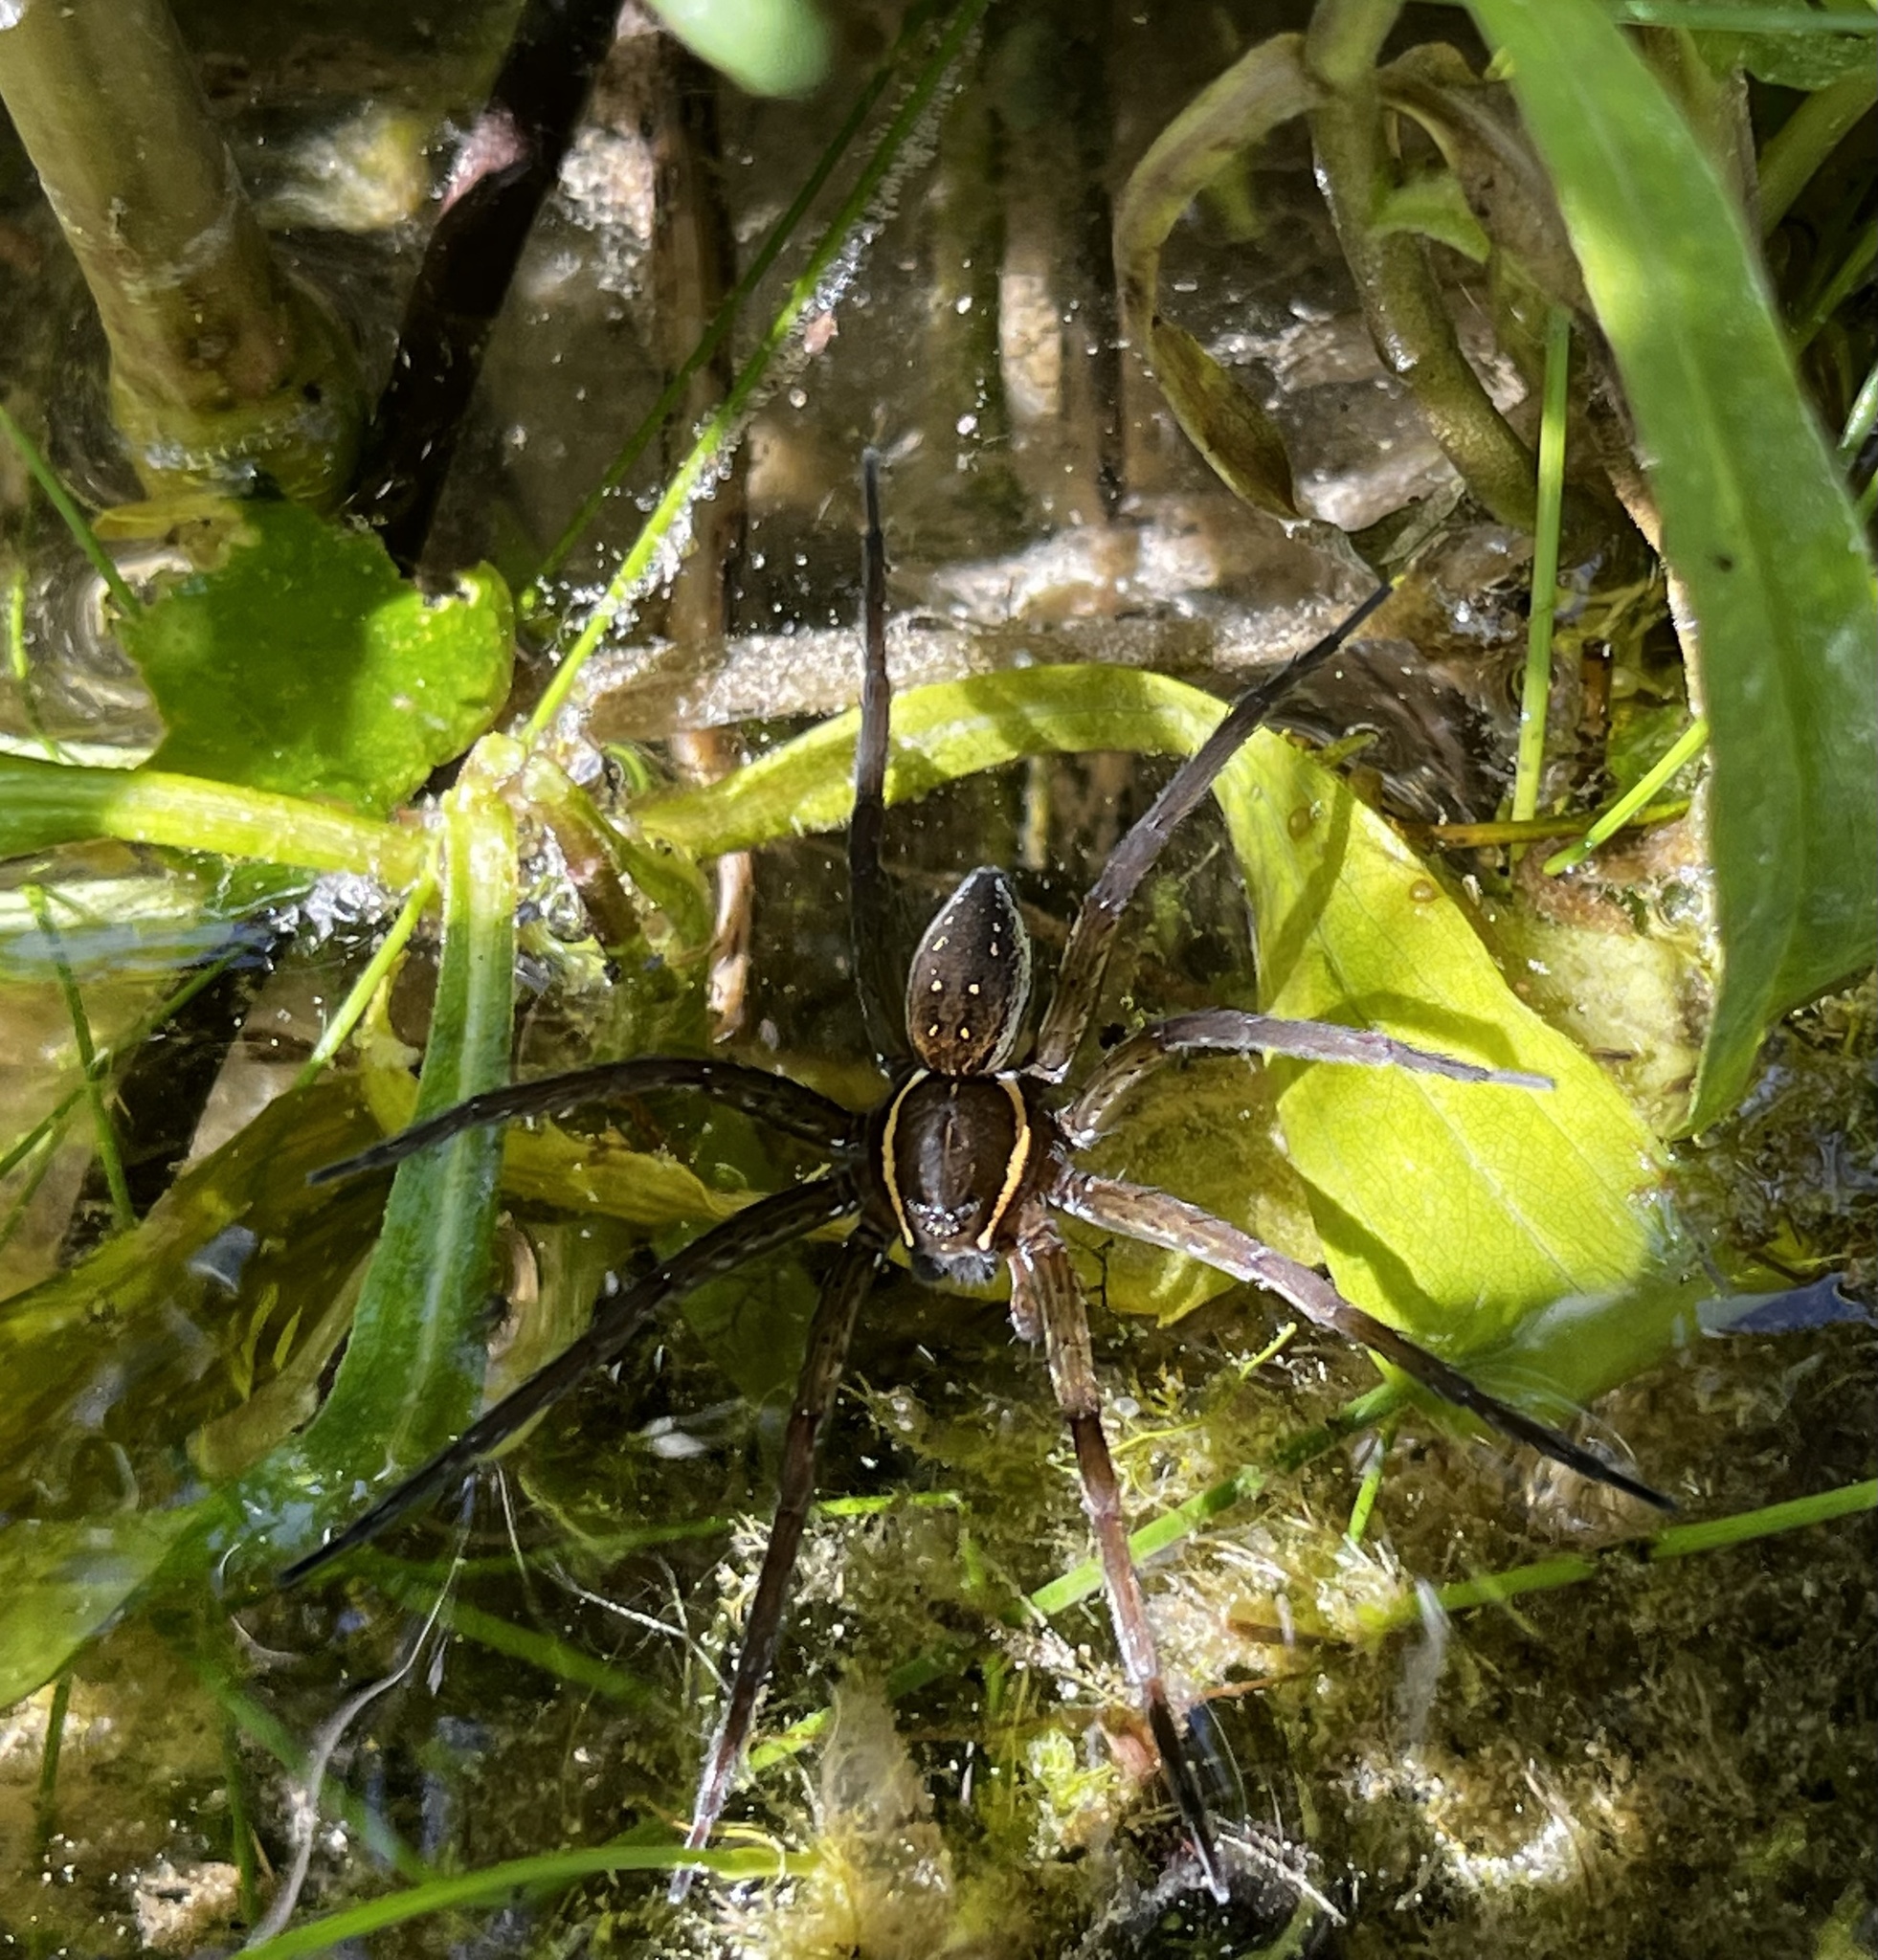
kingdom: Animalia
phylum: Arthropoda
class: Arachnida
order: Araneae
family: Pisauridae
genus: Dolomedes
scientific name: Dolomedes triton
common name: Six-spotted fishing spider
